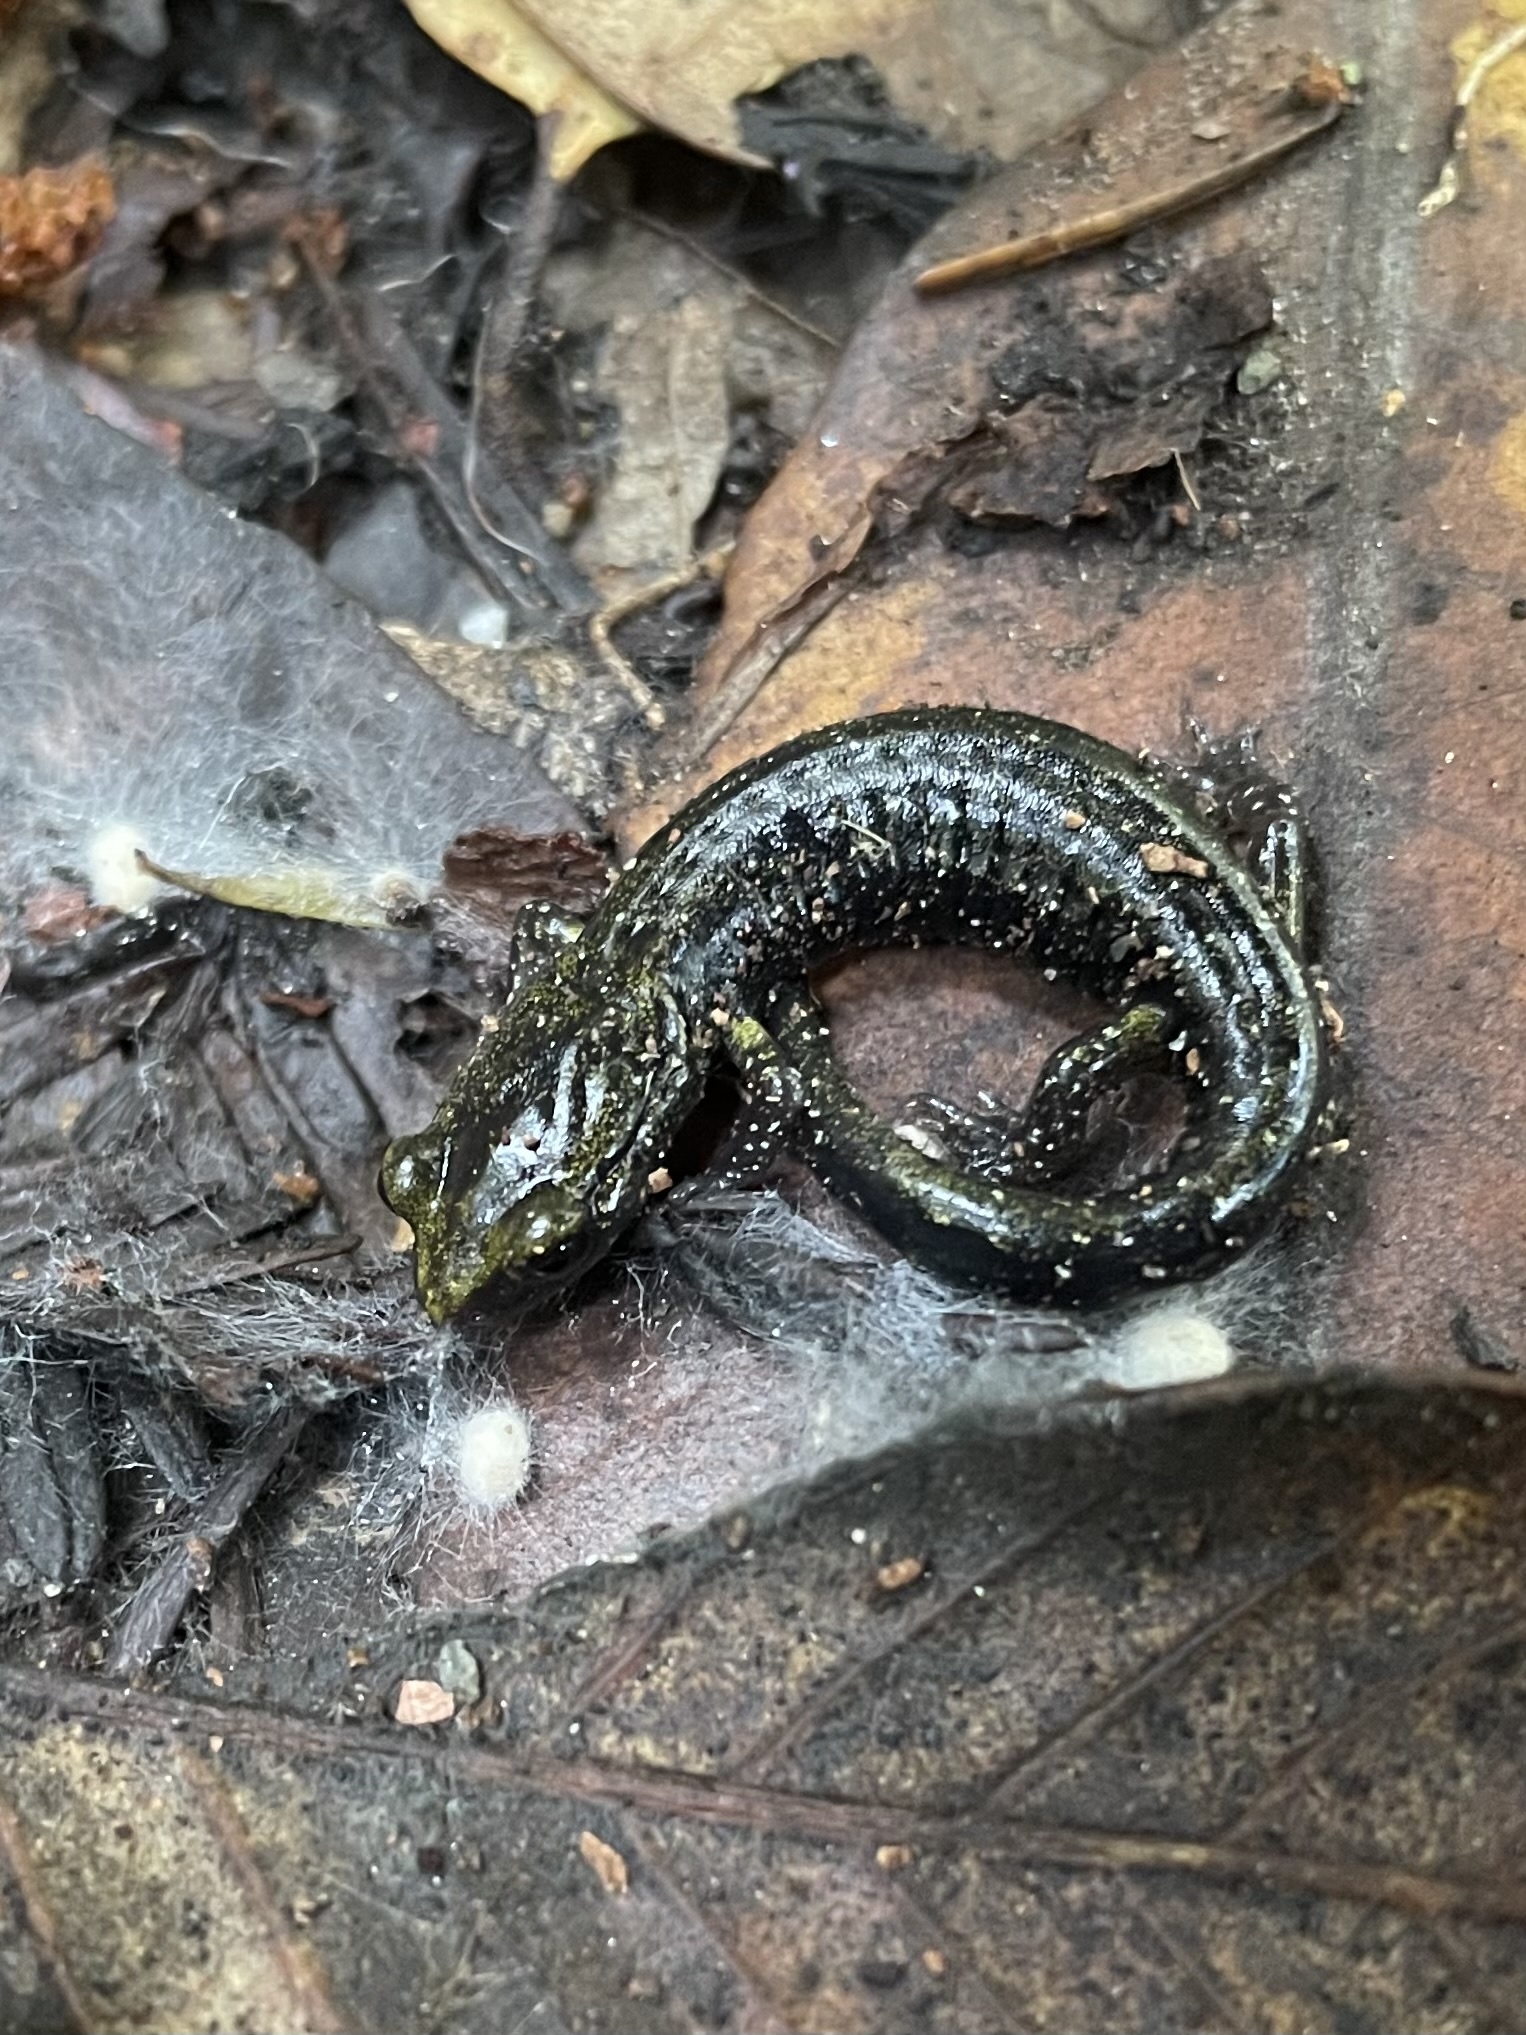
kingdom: Animalia
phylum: Chordata
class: Amphibia
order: Caudata
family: Plethodontidae
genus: Aneides
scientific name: Aneides flavipunctatus
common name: Black salamander
